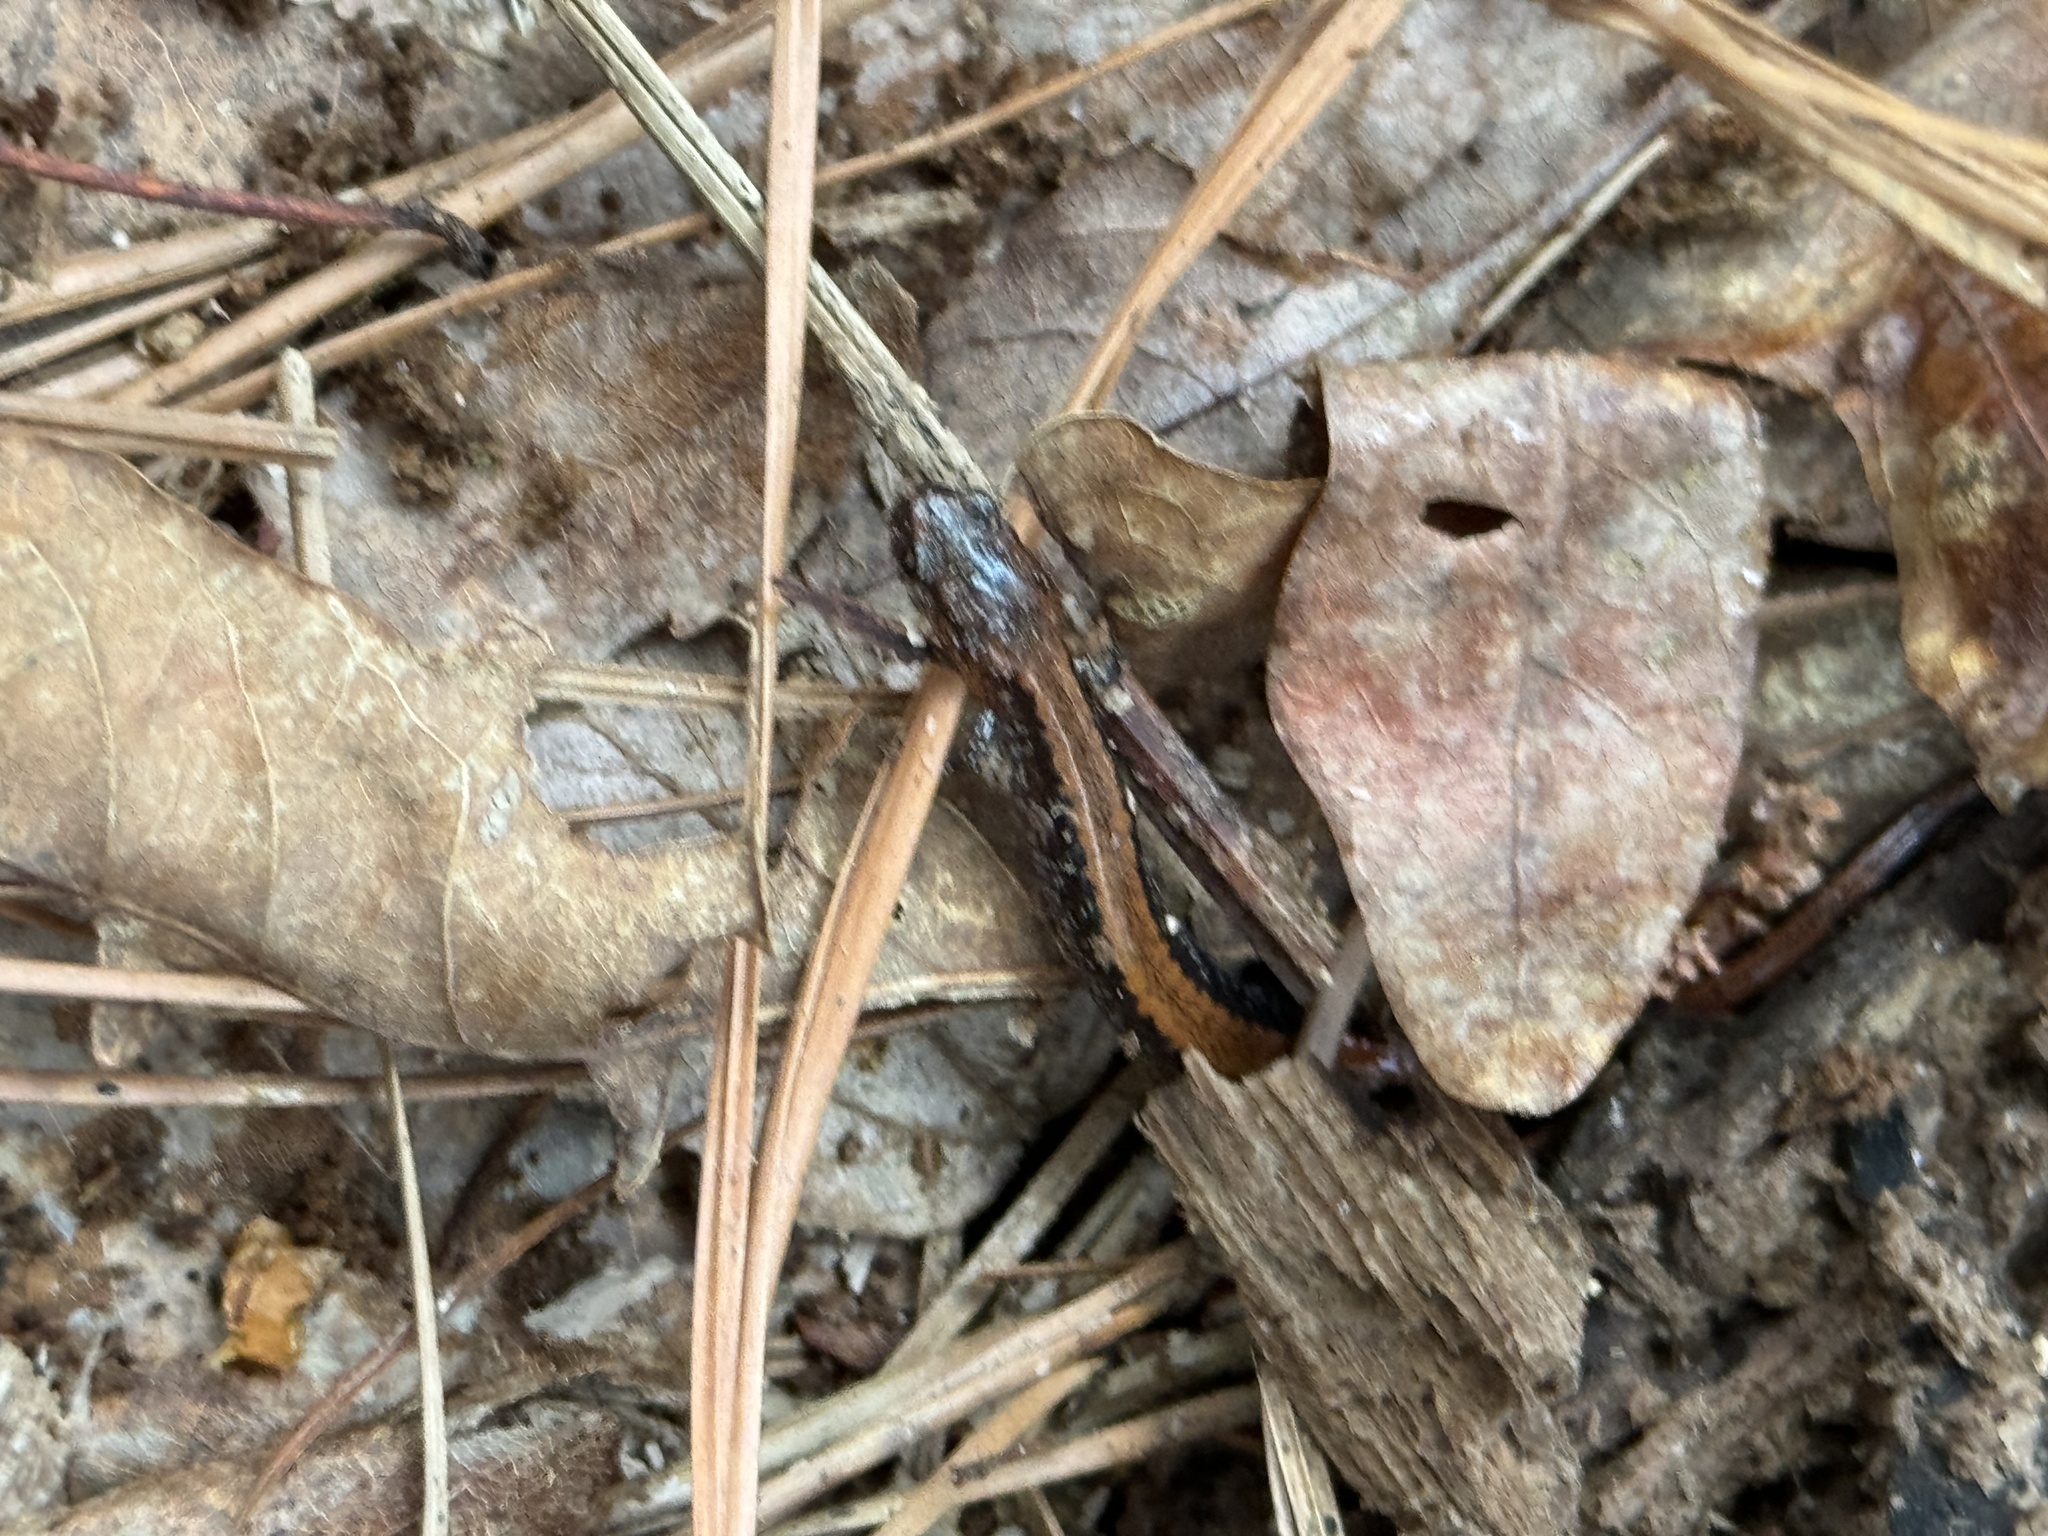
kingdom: Animalia
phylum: Chordata
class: Amphibia
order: Caudata
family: Plethodontidae
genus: Plethodon
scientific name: Plethodon cinereus
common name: Redback salamander
